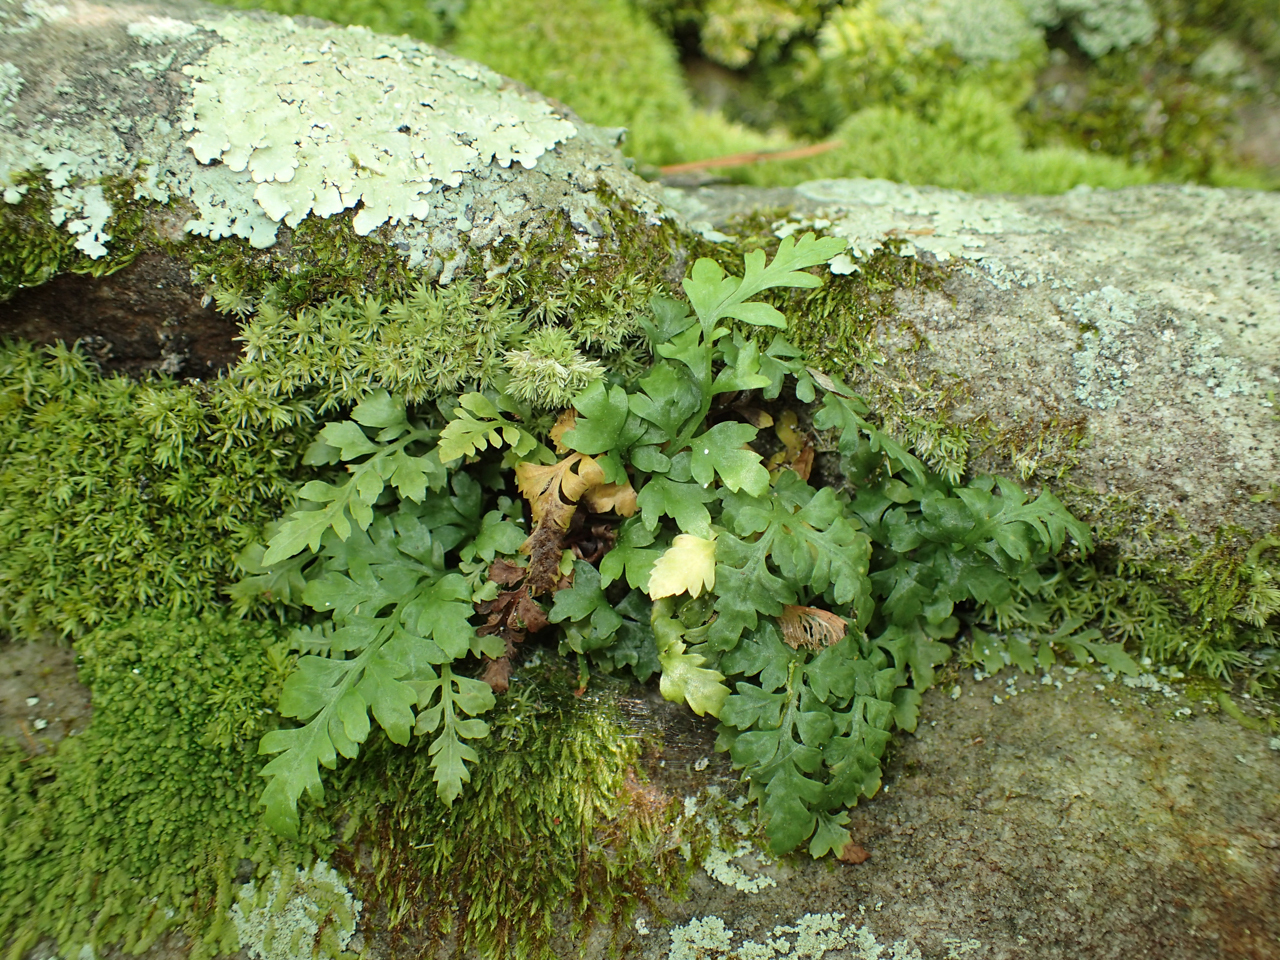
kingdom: Plantae
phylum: Tracheophyta
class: Polypodiopsida
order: Polypodiales
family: Aspleniaceae
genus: Asplenium
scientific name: Asplenium montanum
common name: Mountain spleenwort
